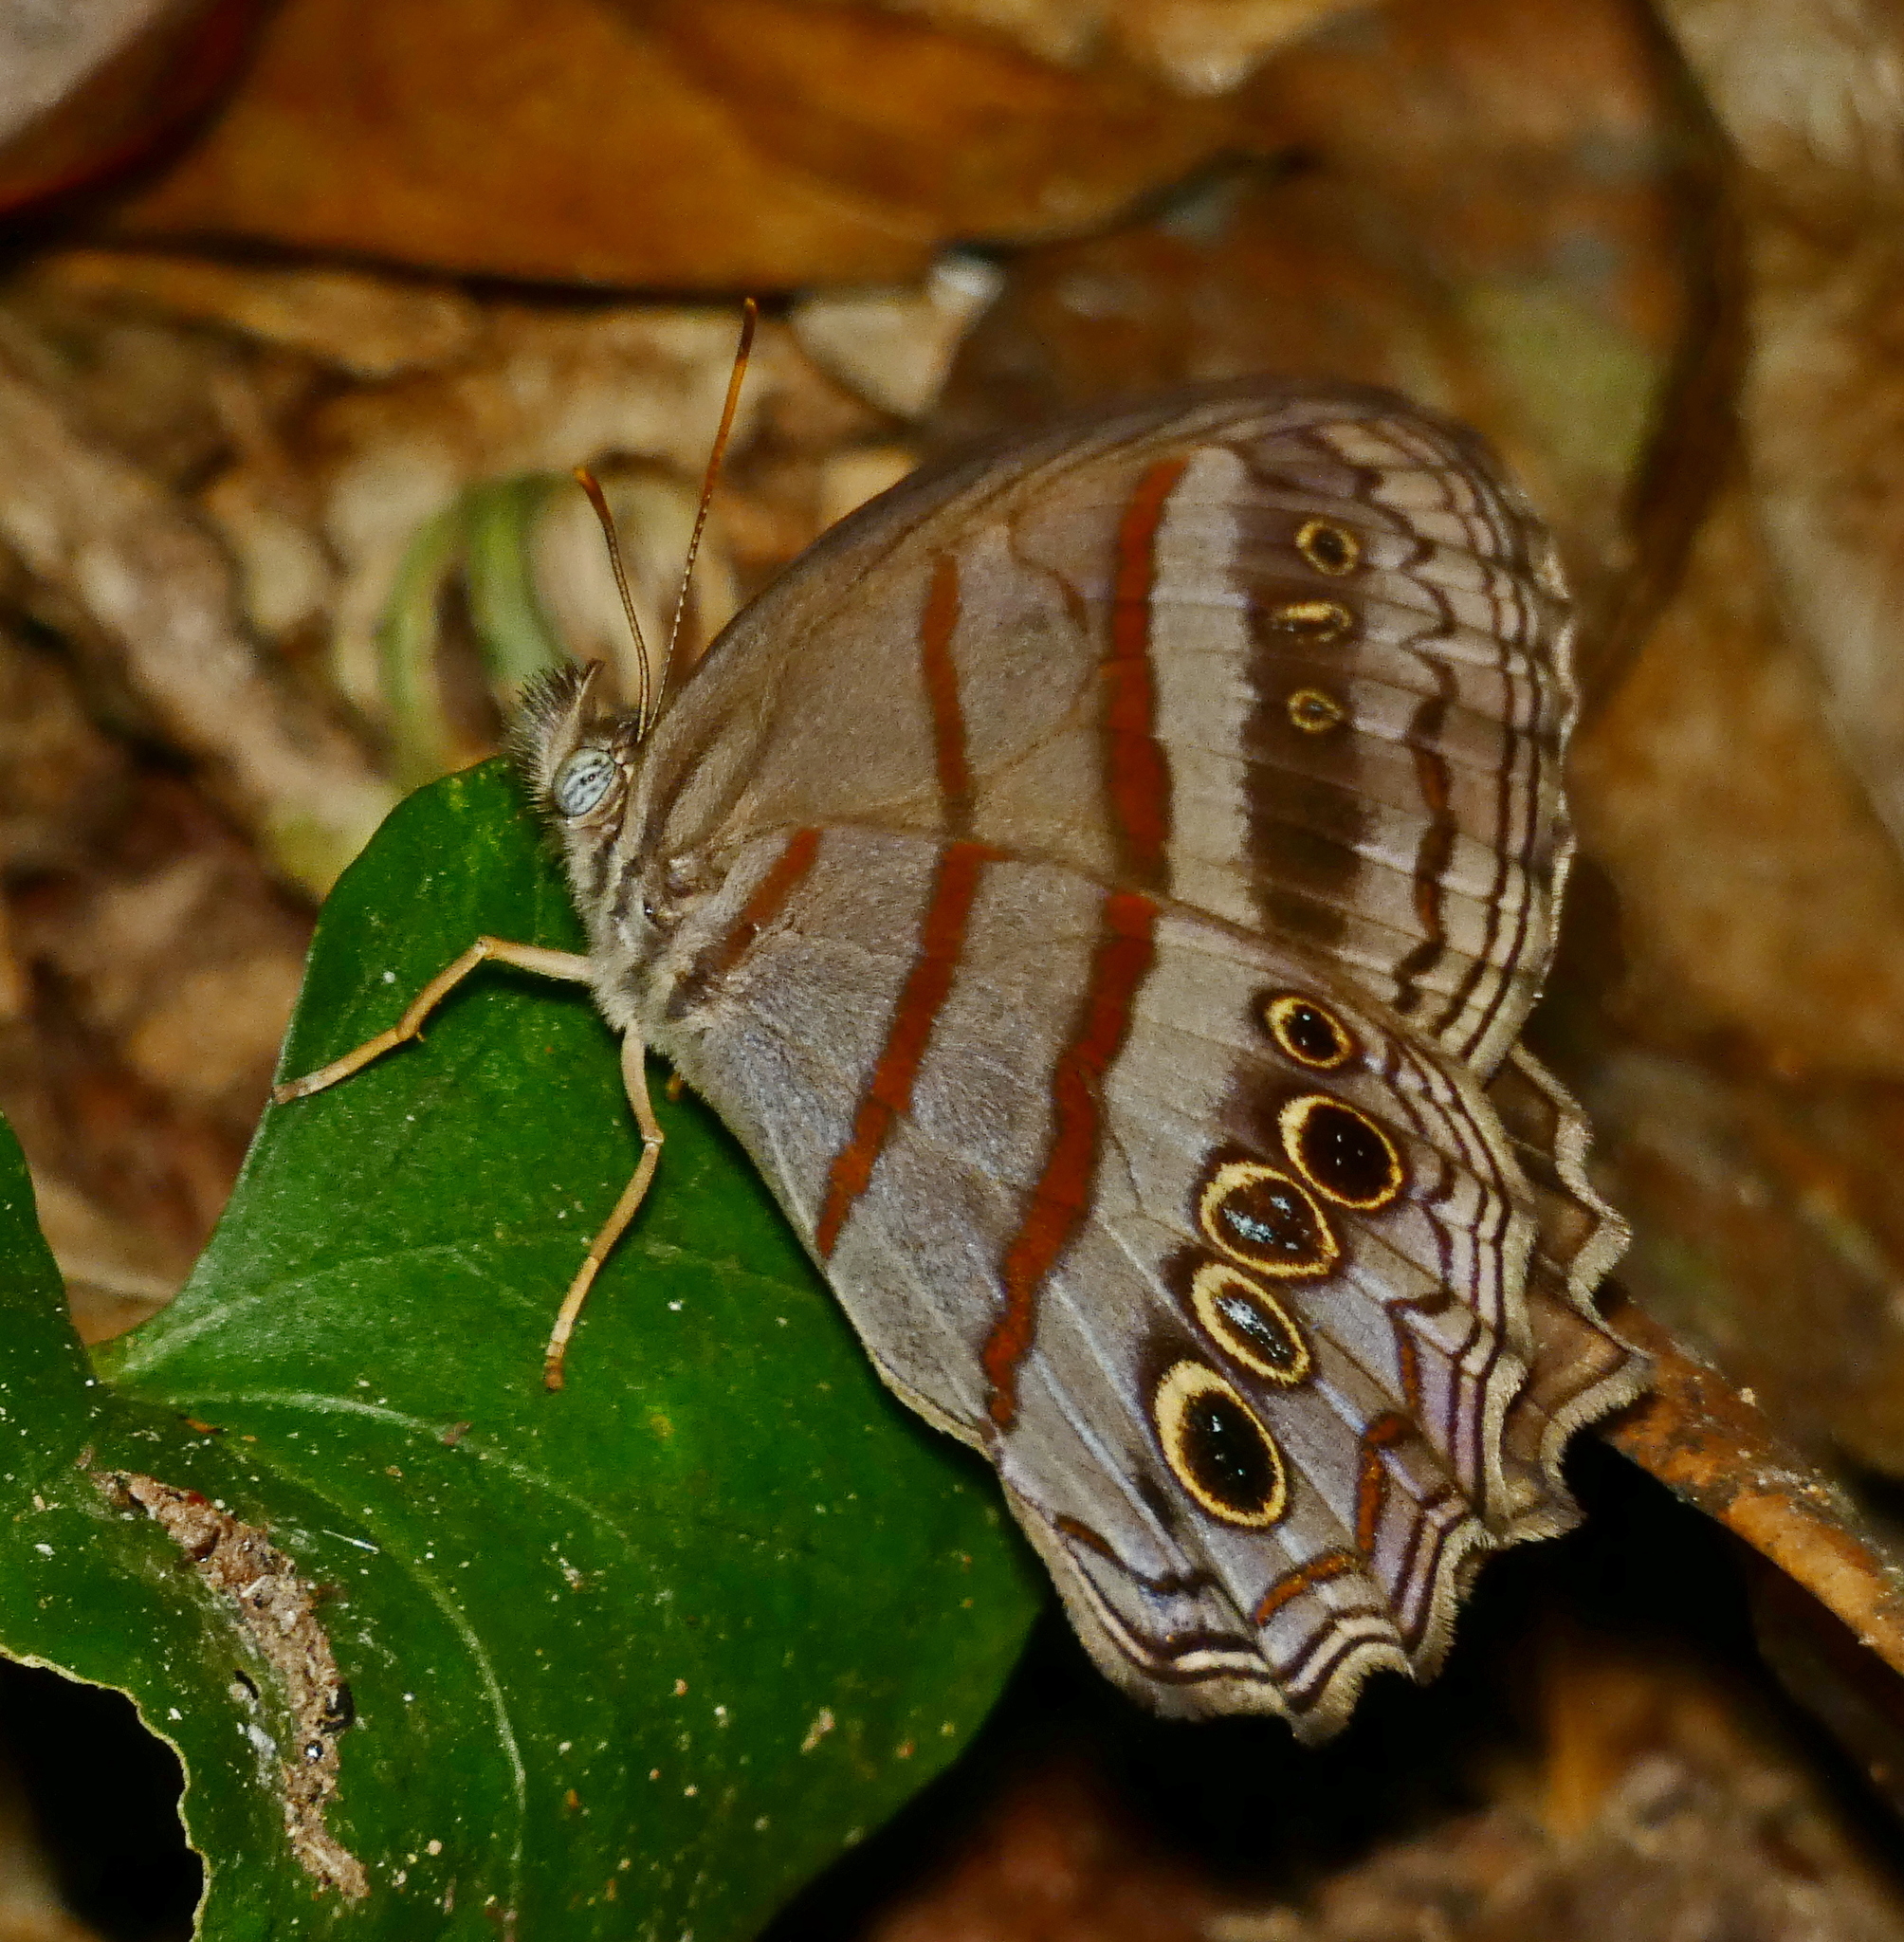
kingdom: Animalia
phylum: Arthropoda
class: Insecta
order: Lepidoptera
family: Nymphalidae
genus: Magneuptychia
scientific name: Magneuptychia libye
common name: Blue-gray satyr
